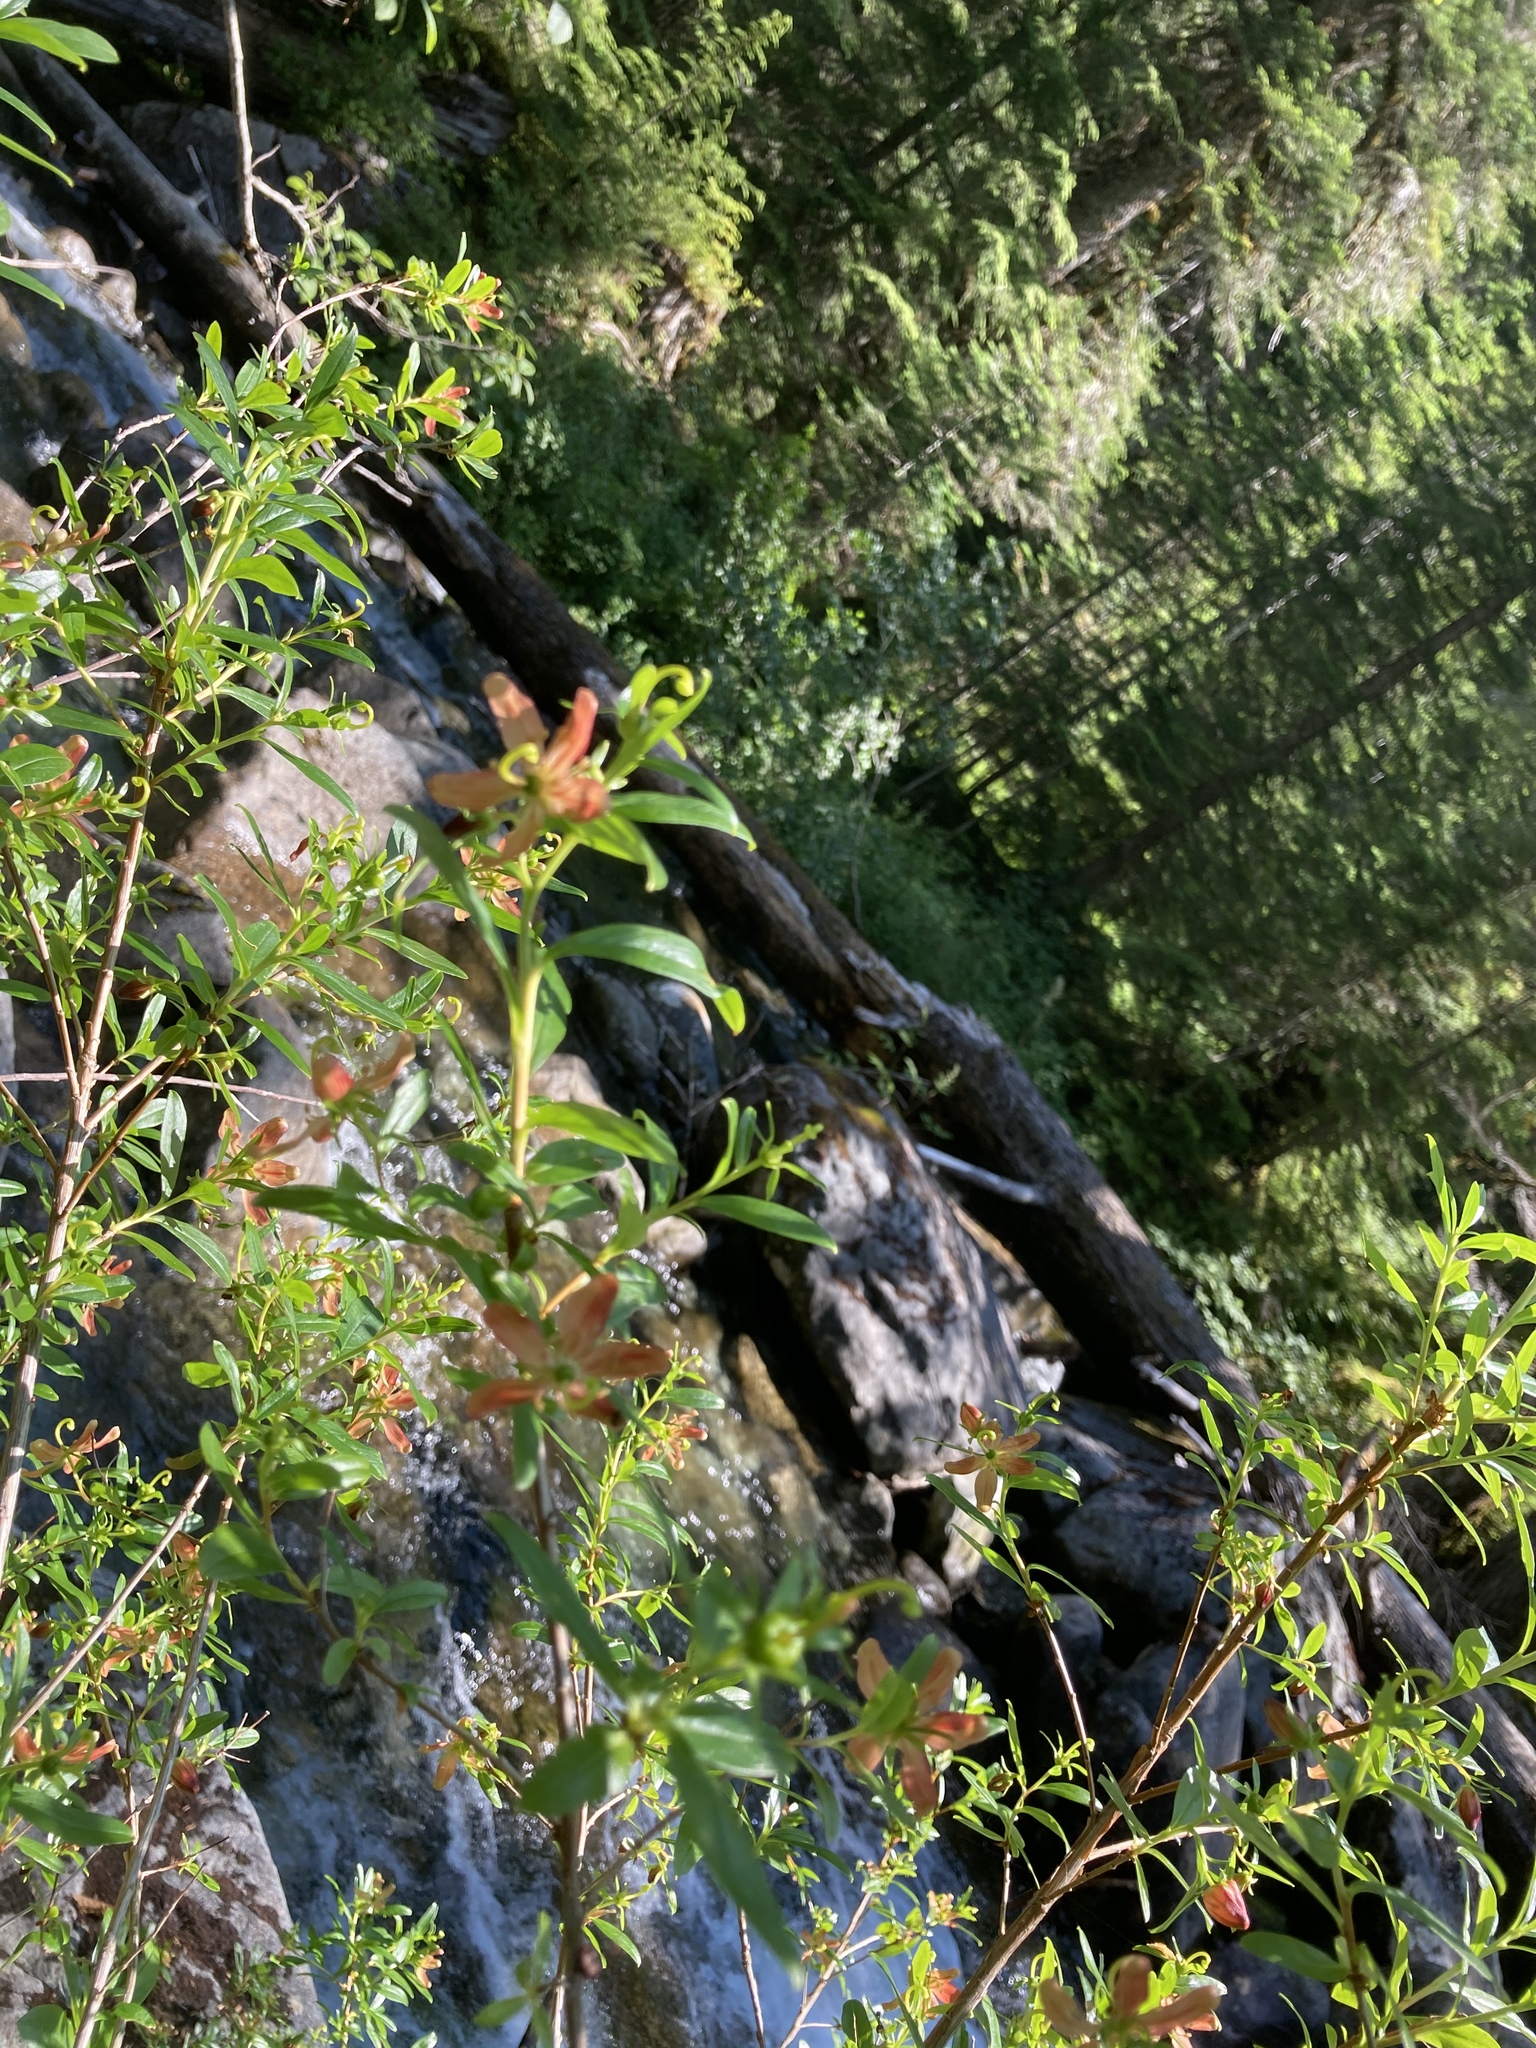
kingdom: Plantae
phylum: Tracheophyta
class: Magnoliopsida
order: Ericales
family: Ericaceae
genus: Elliottia
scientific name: Elliottia pyroliflora
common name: Copperbush
